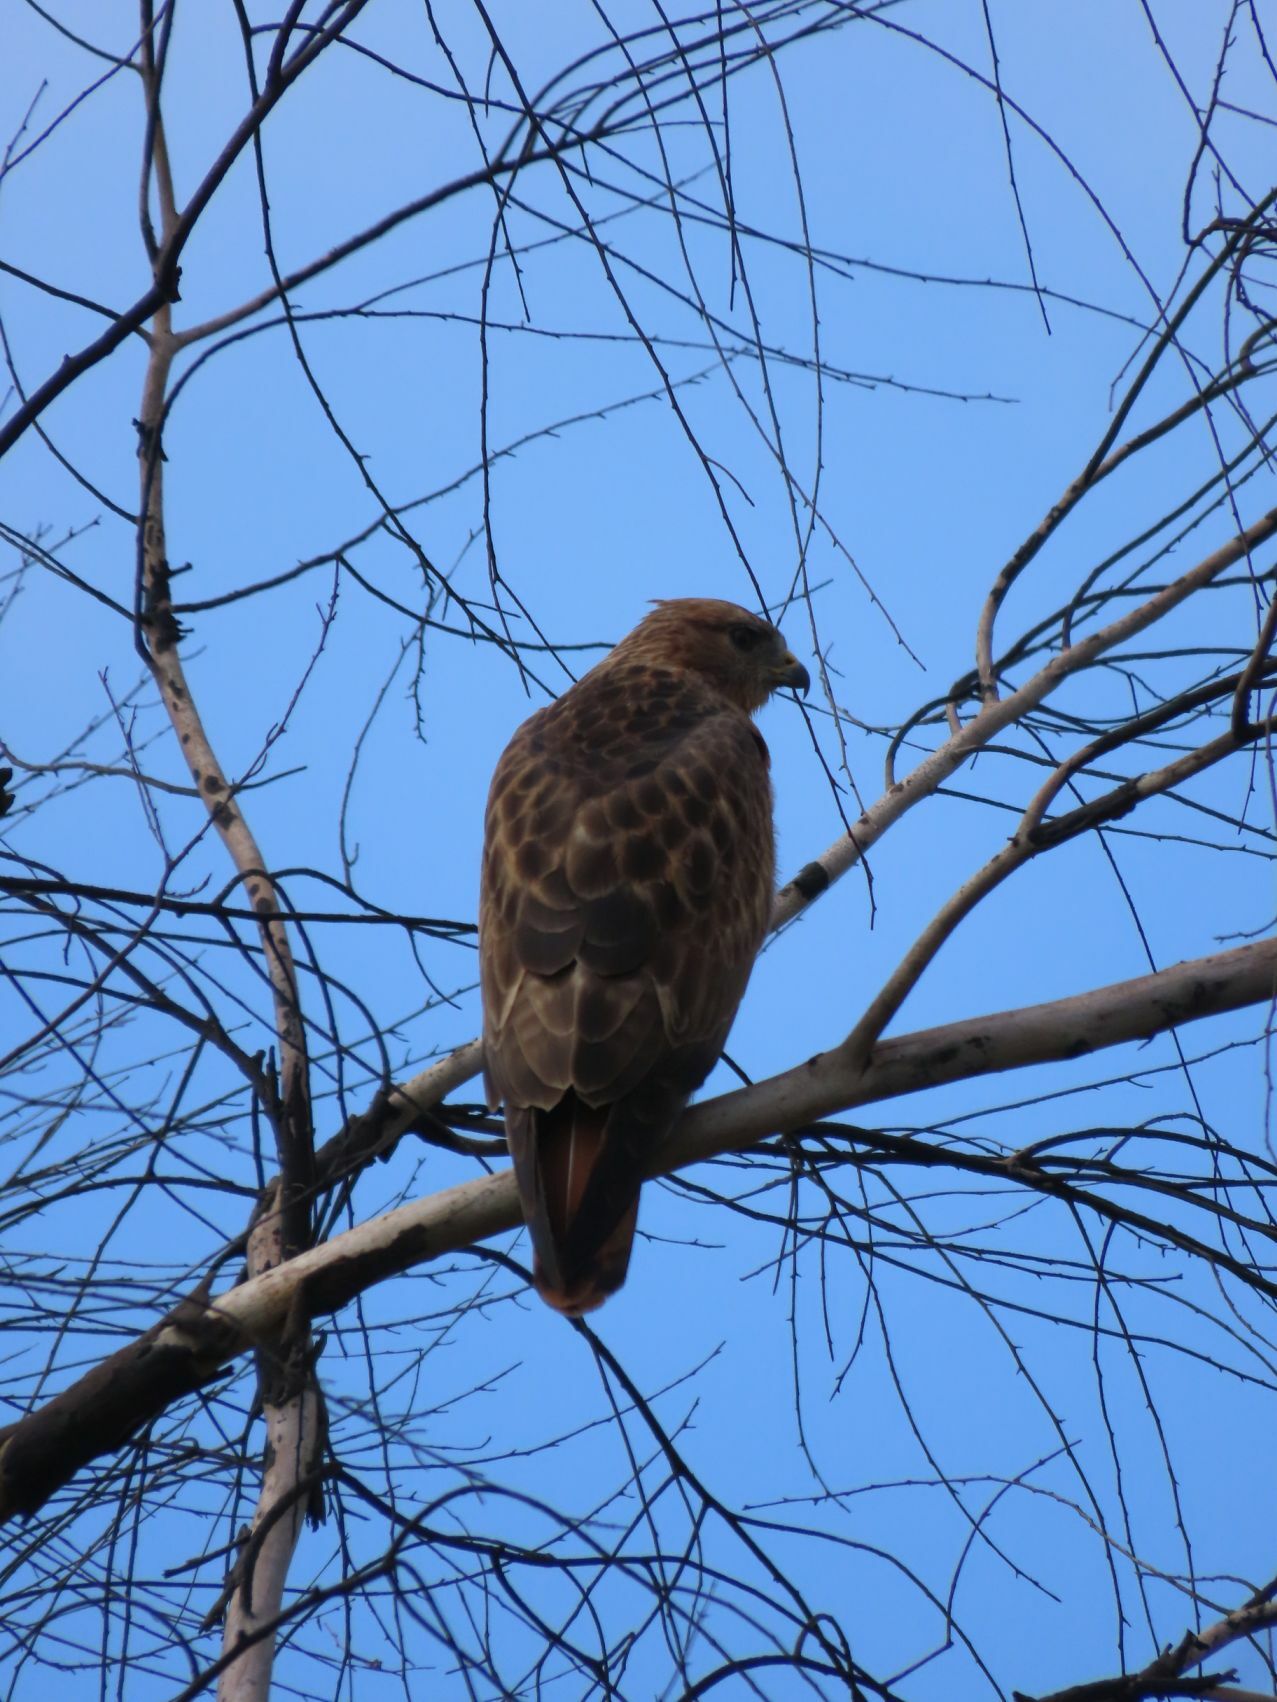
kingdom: Animalia
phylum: Chordata
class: Aves
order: Accipitriformes
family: Accipitridae
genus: Buteo
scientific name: Buteo buteo
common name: Common buzzard
